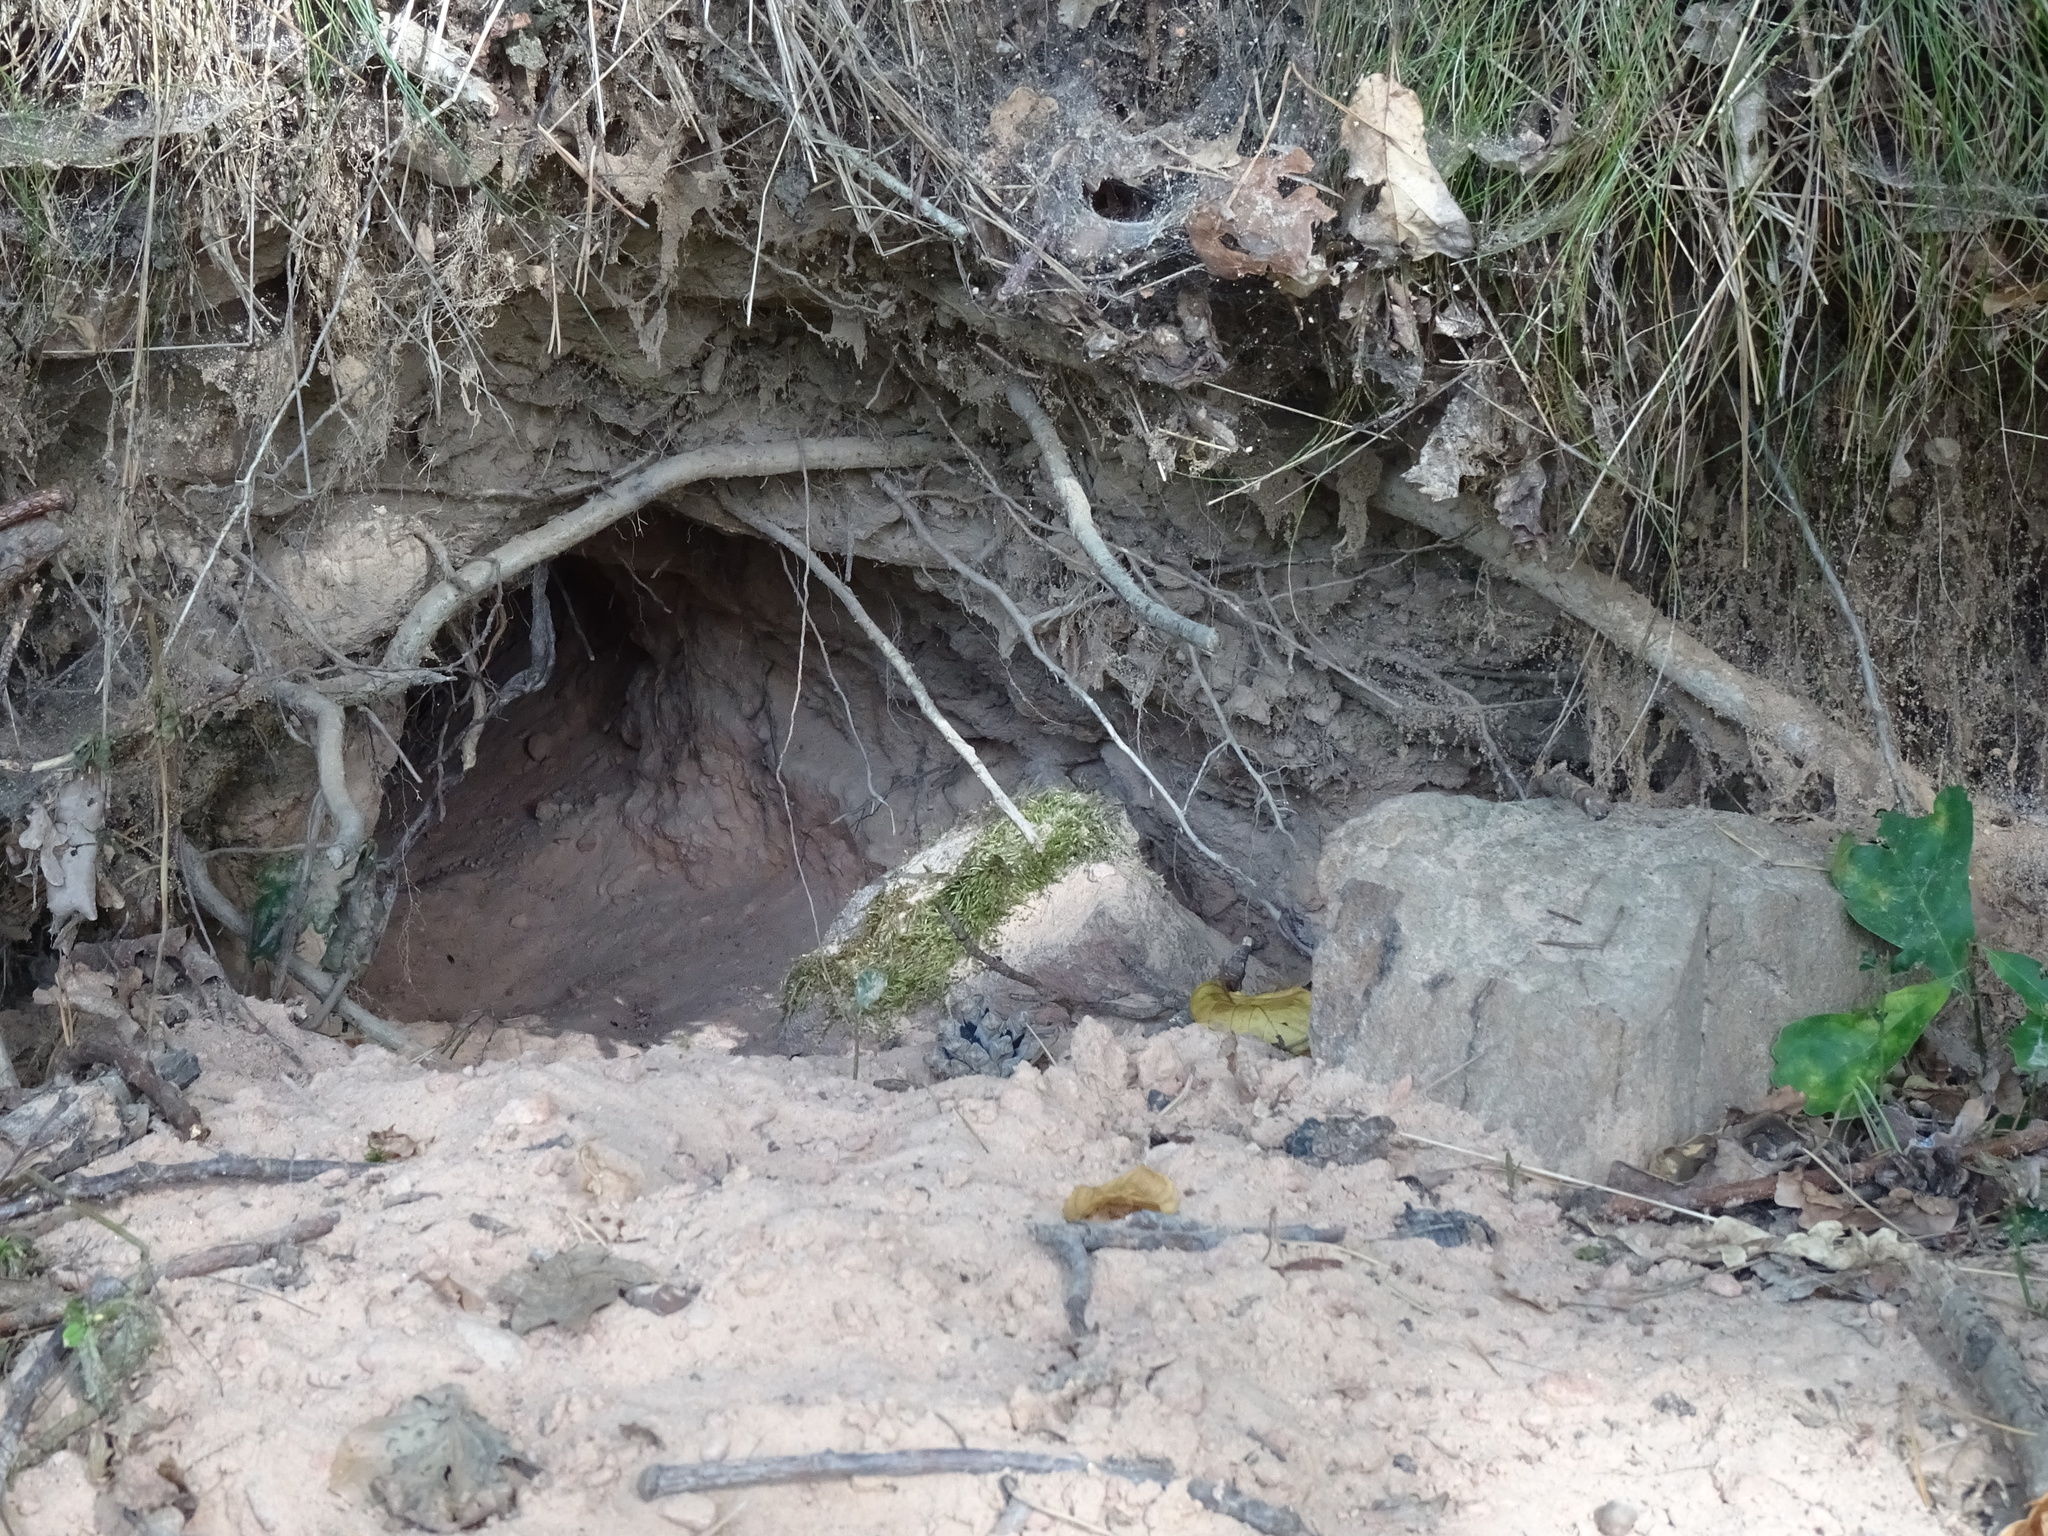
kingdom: Animalia
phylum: Chordata
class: Mammalia
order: Carnivora
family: Mustelidae
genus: Meles
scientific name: Meles meles
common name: Eurasian badger
